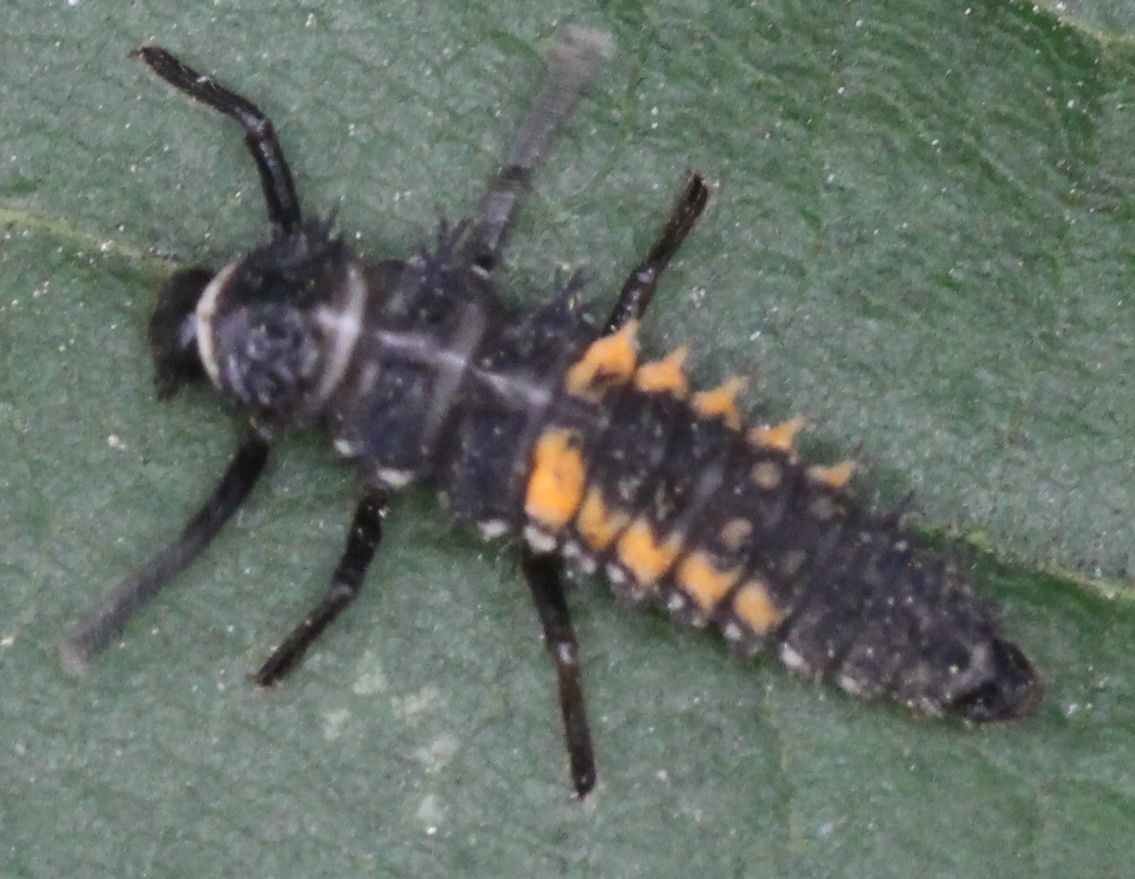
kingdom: Animalia
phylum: Arthropoda
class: Insecta
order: Coleoptera
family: Coccinellidae
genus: Harmonia
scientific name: Harmonia axyridis
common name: Harlequin ladybird
